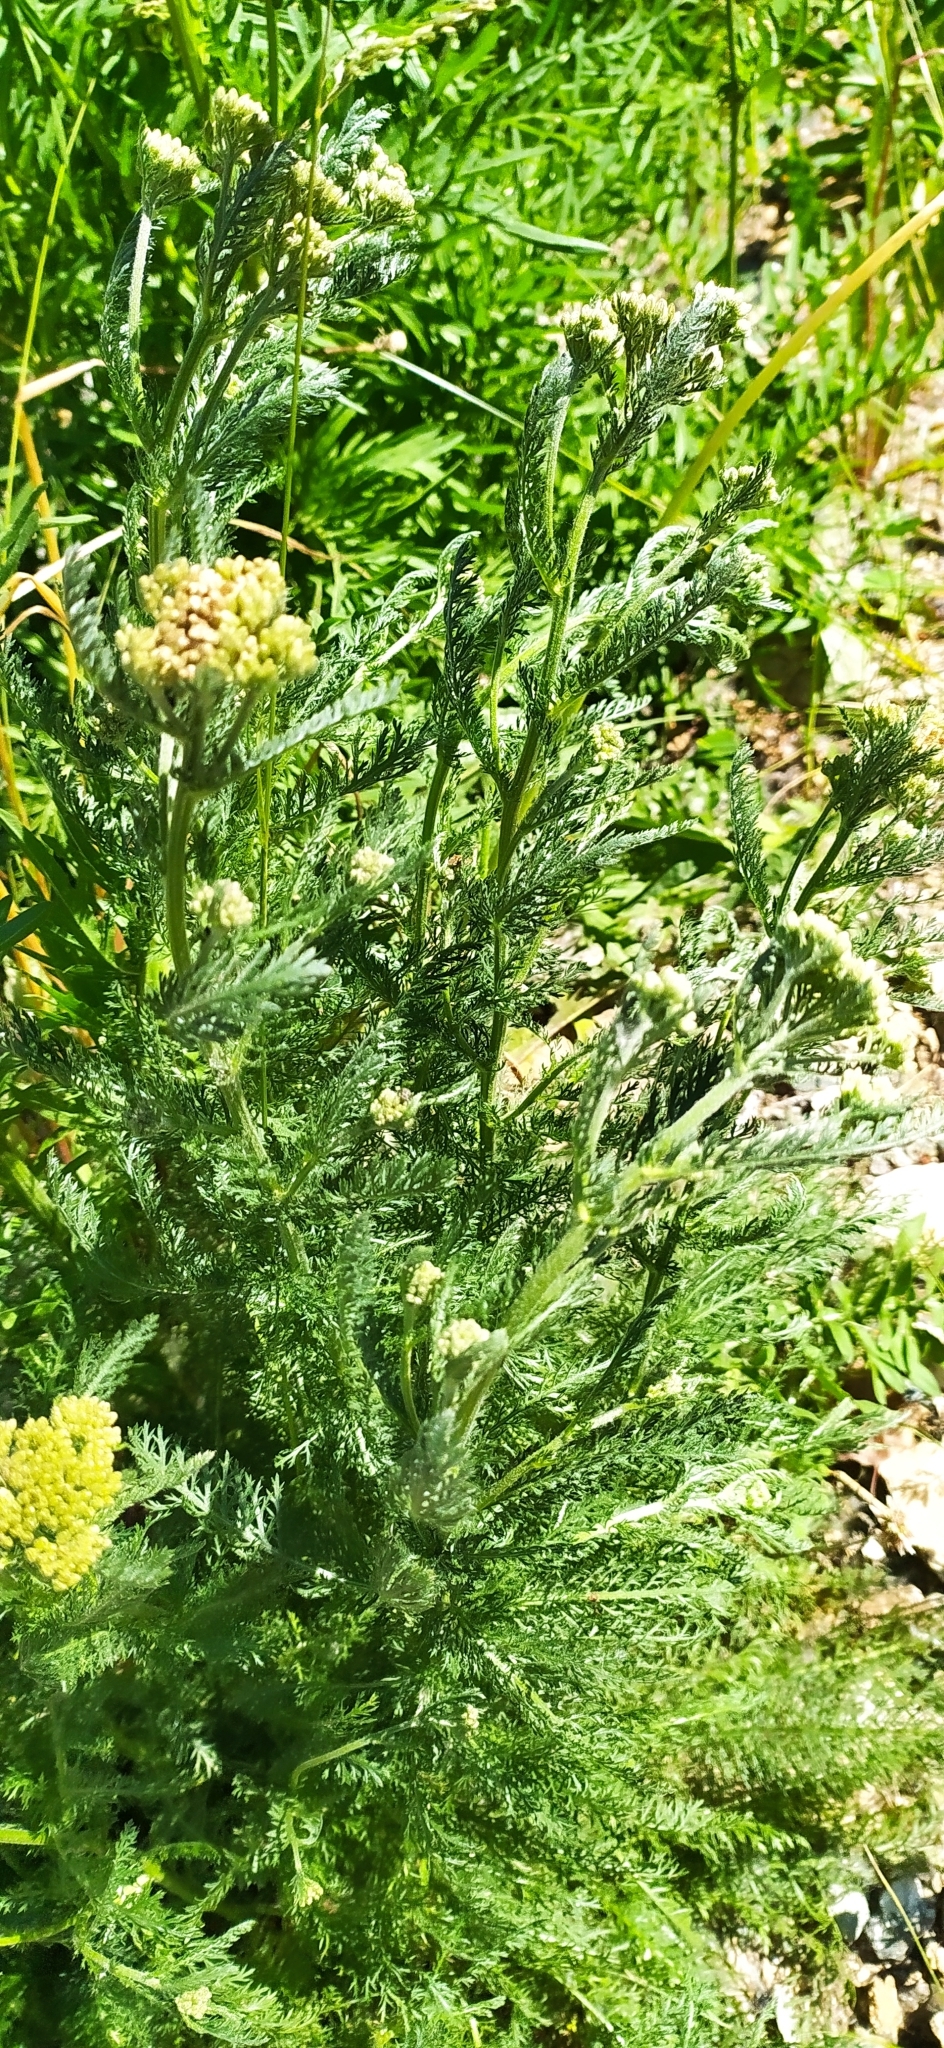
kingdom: Plantae
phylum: Tracheophyta
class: Magnoliopsida
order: Asterales
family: Asteraceae
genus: Achillea
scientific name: Achillea millefolium
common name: Yarrow
